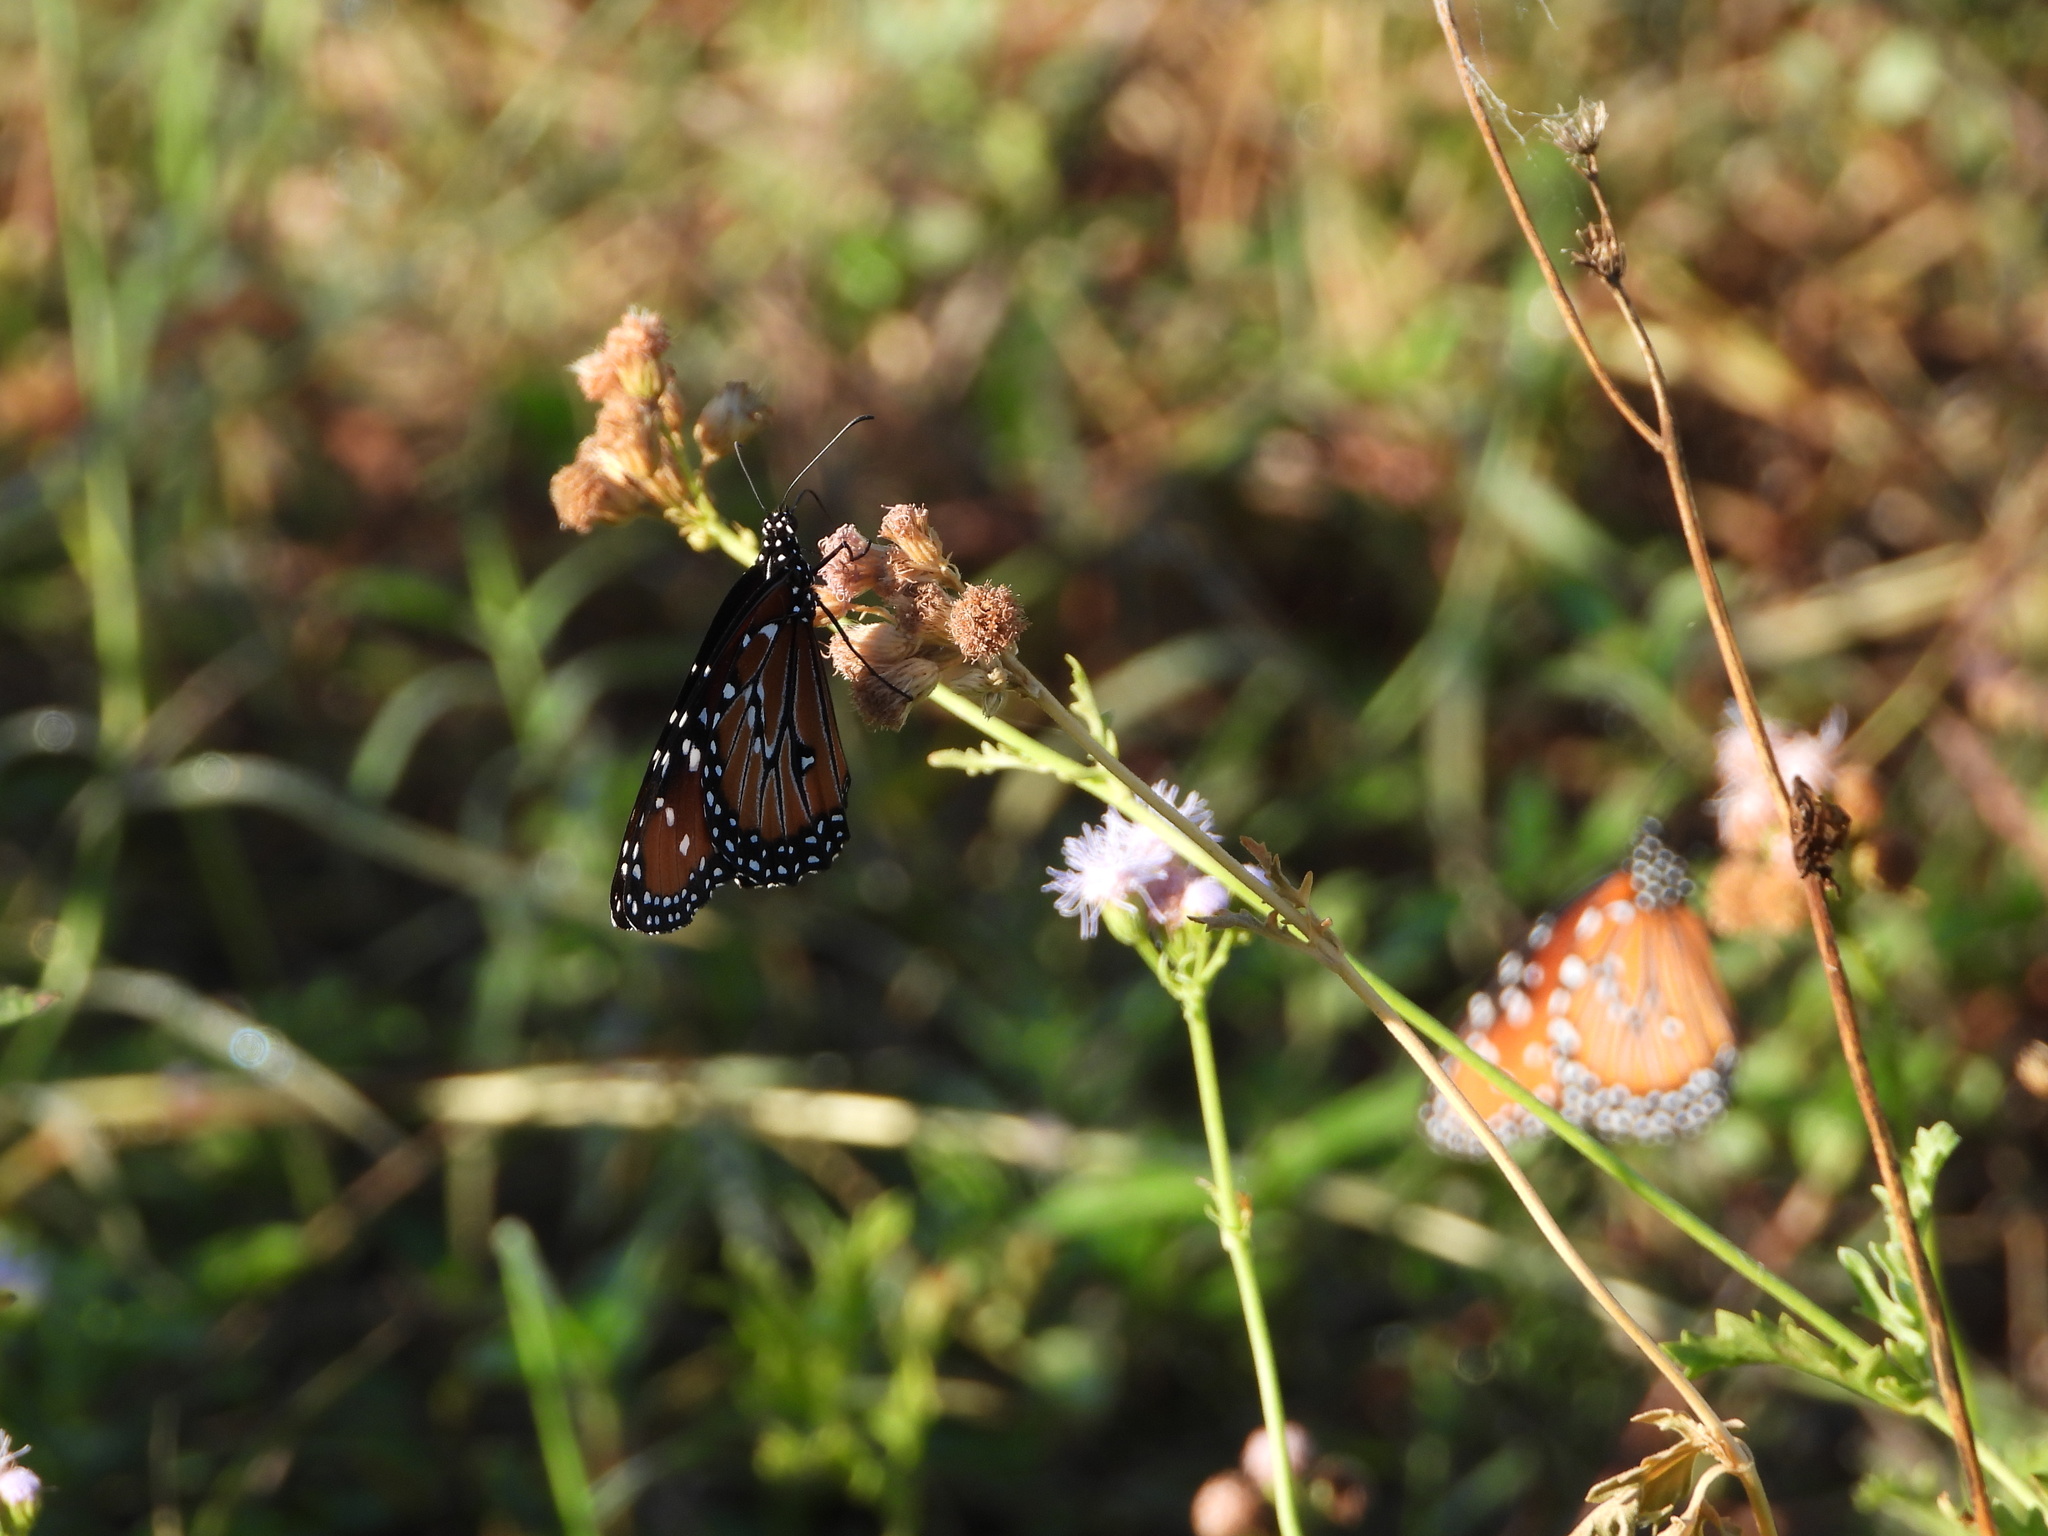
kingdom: Animalia
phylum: Arthropoda
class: Insecta
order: Lepidoptera
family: Nymphalidae
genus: Danaus
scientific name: Danaus gilippus
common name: Queen
